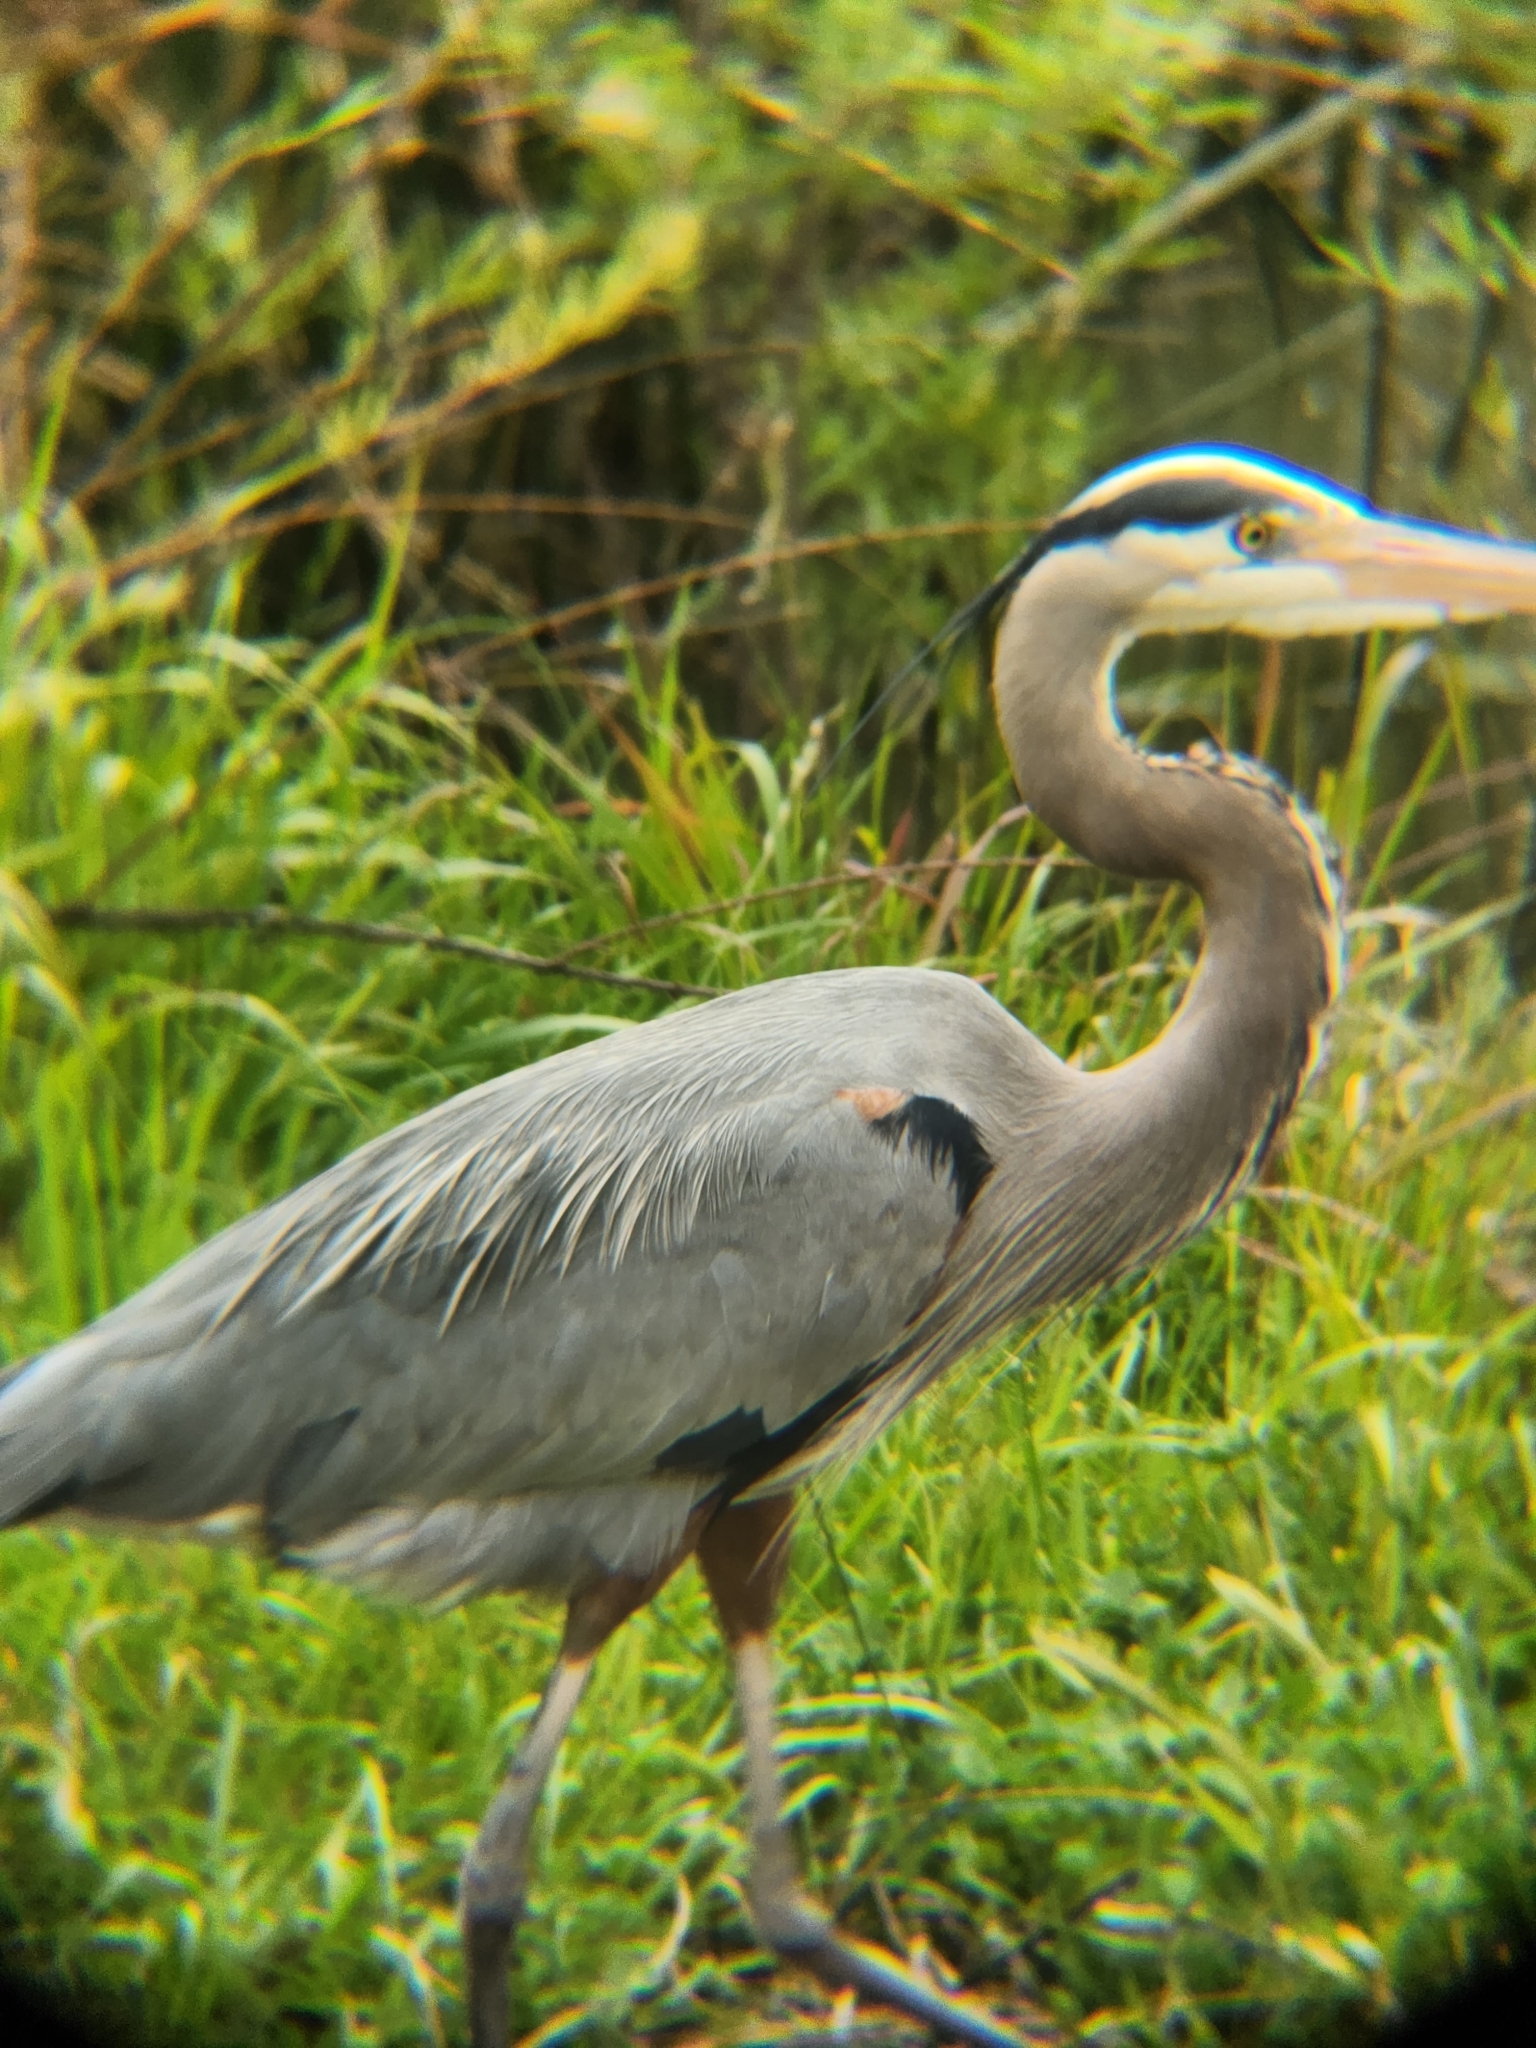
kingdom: Animalia
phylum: Chordata
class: Aves
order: Pelecaniformes
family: Ardeidae
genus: Ardea
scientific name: Ardea herodias
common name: Great blue heron
